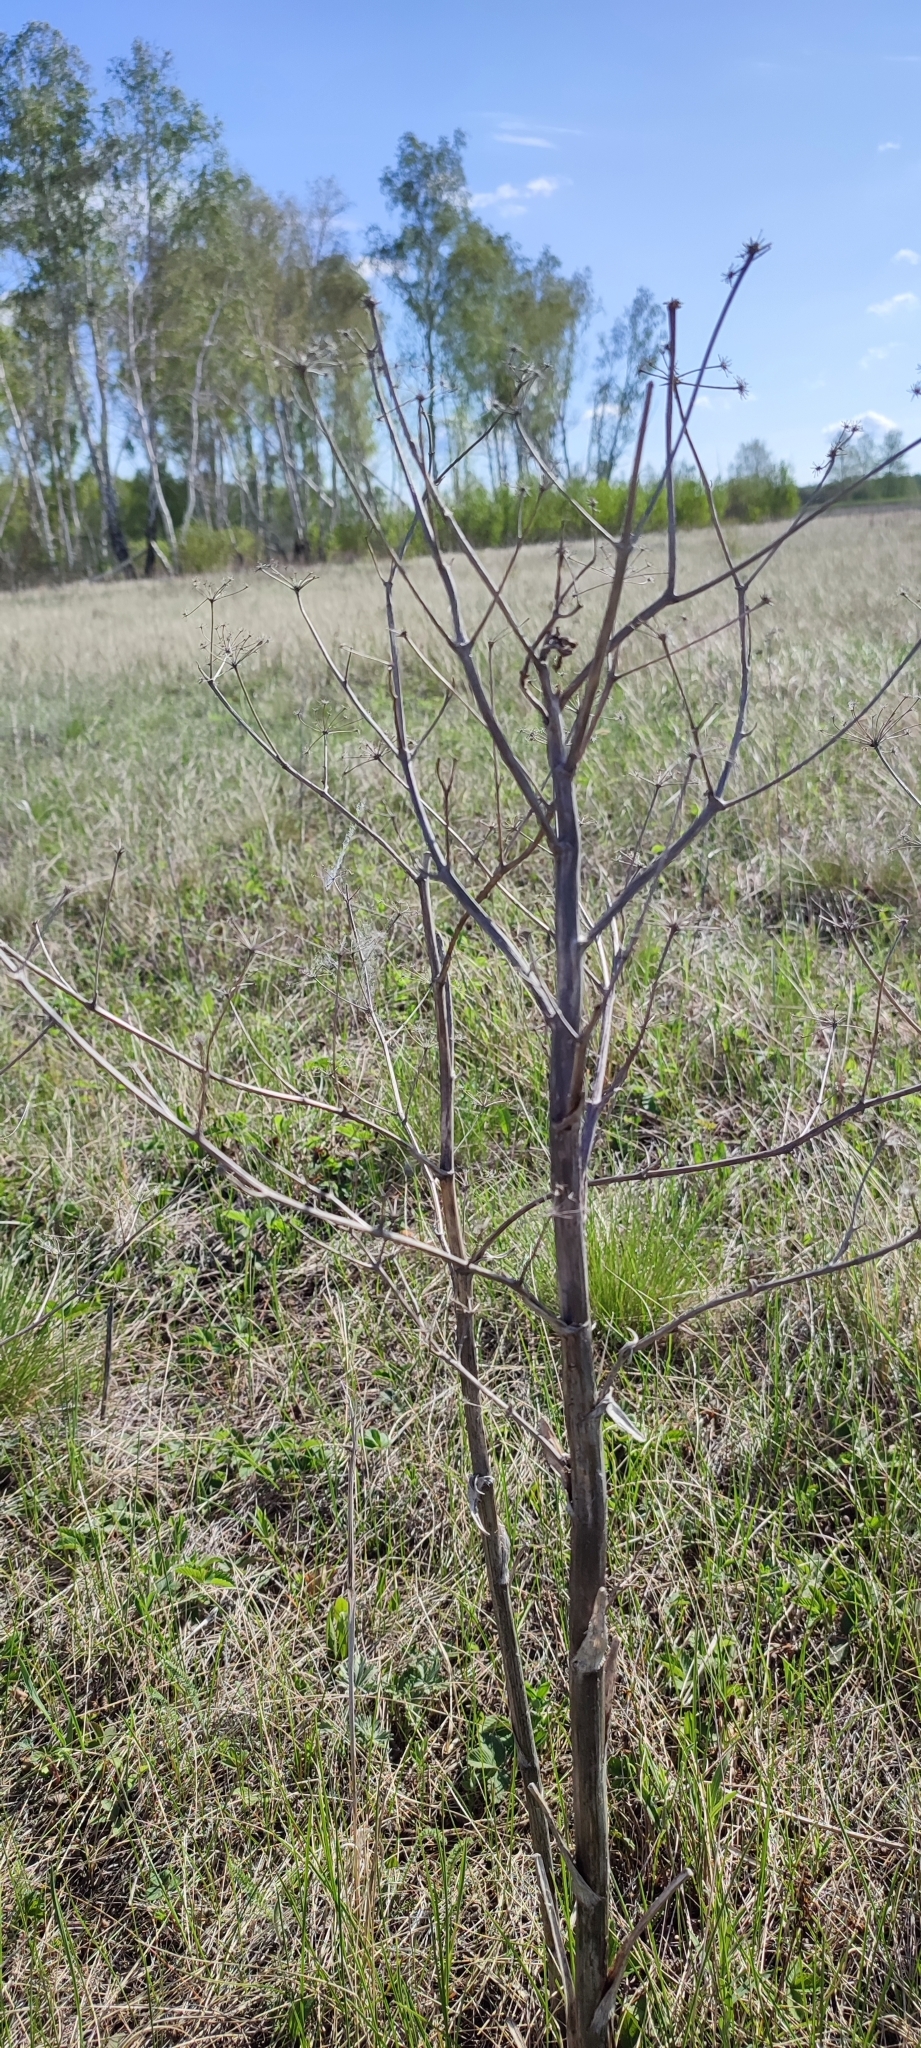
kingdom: Plantae
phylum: Tracheophyta
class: Magnoliopsida
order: Apiales
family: Apiaceae
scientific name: Apiaceae
